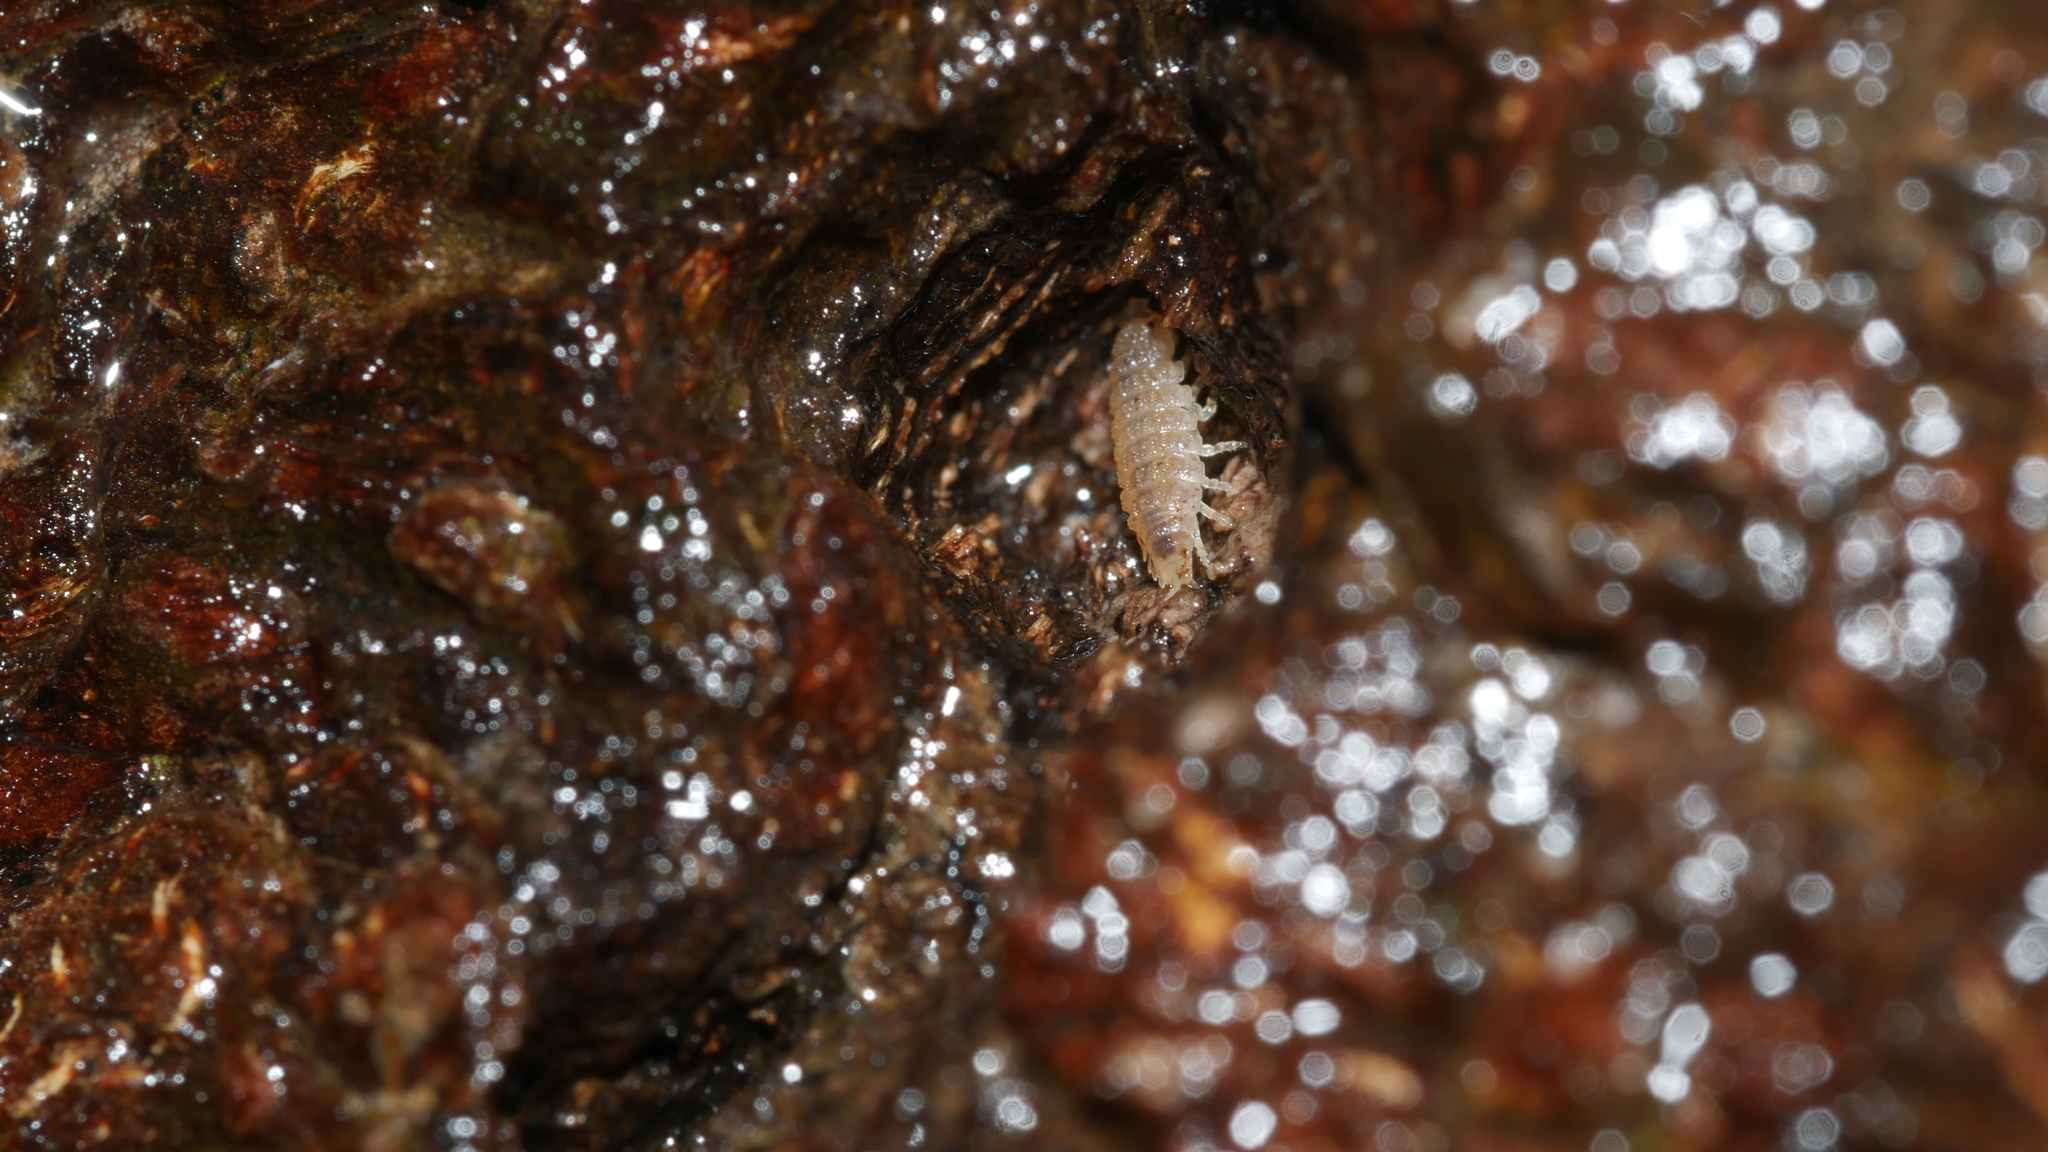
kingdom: Animalia
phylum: Arthropoda
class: Malacostraca
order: Isopoda
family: Trichoniscidae
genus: Haplophthalmus
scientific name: Haplophthalmus danicus
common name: Pillbug
